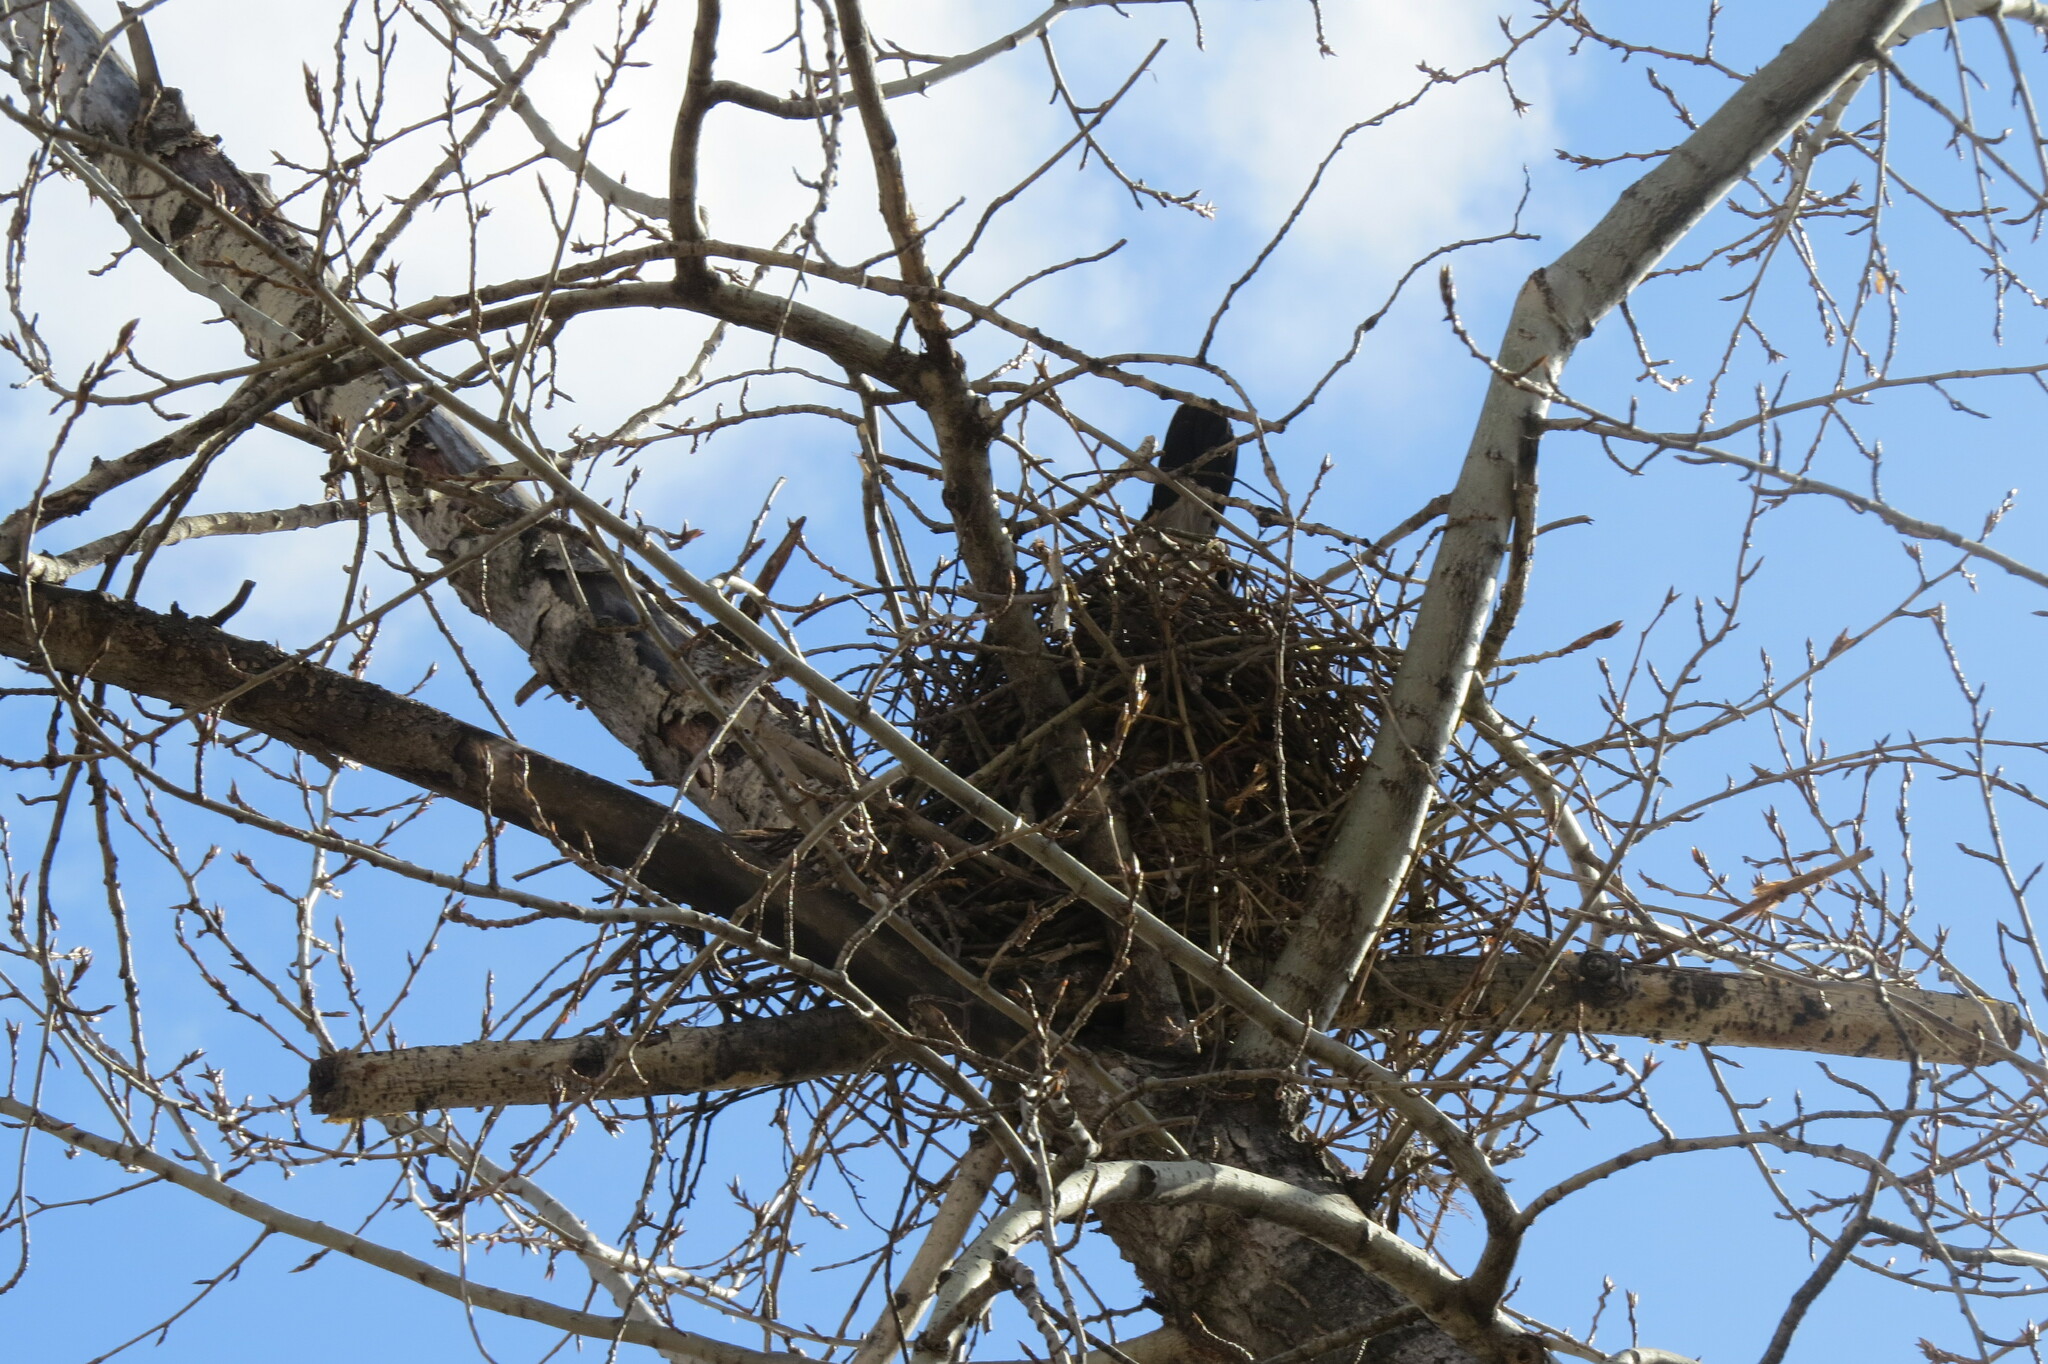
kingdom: Animalia
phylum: Chordata
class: Aves
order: Passeriformes
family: Corvidae
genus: Corvus
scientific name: Corvus cornix
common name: Hooded crow
